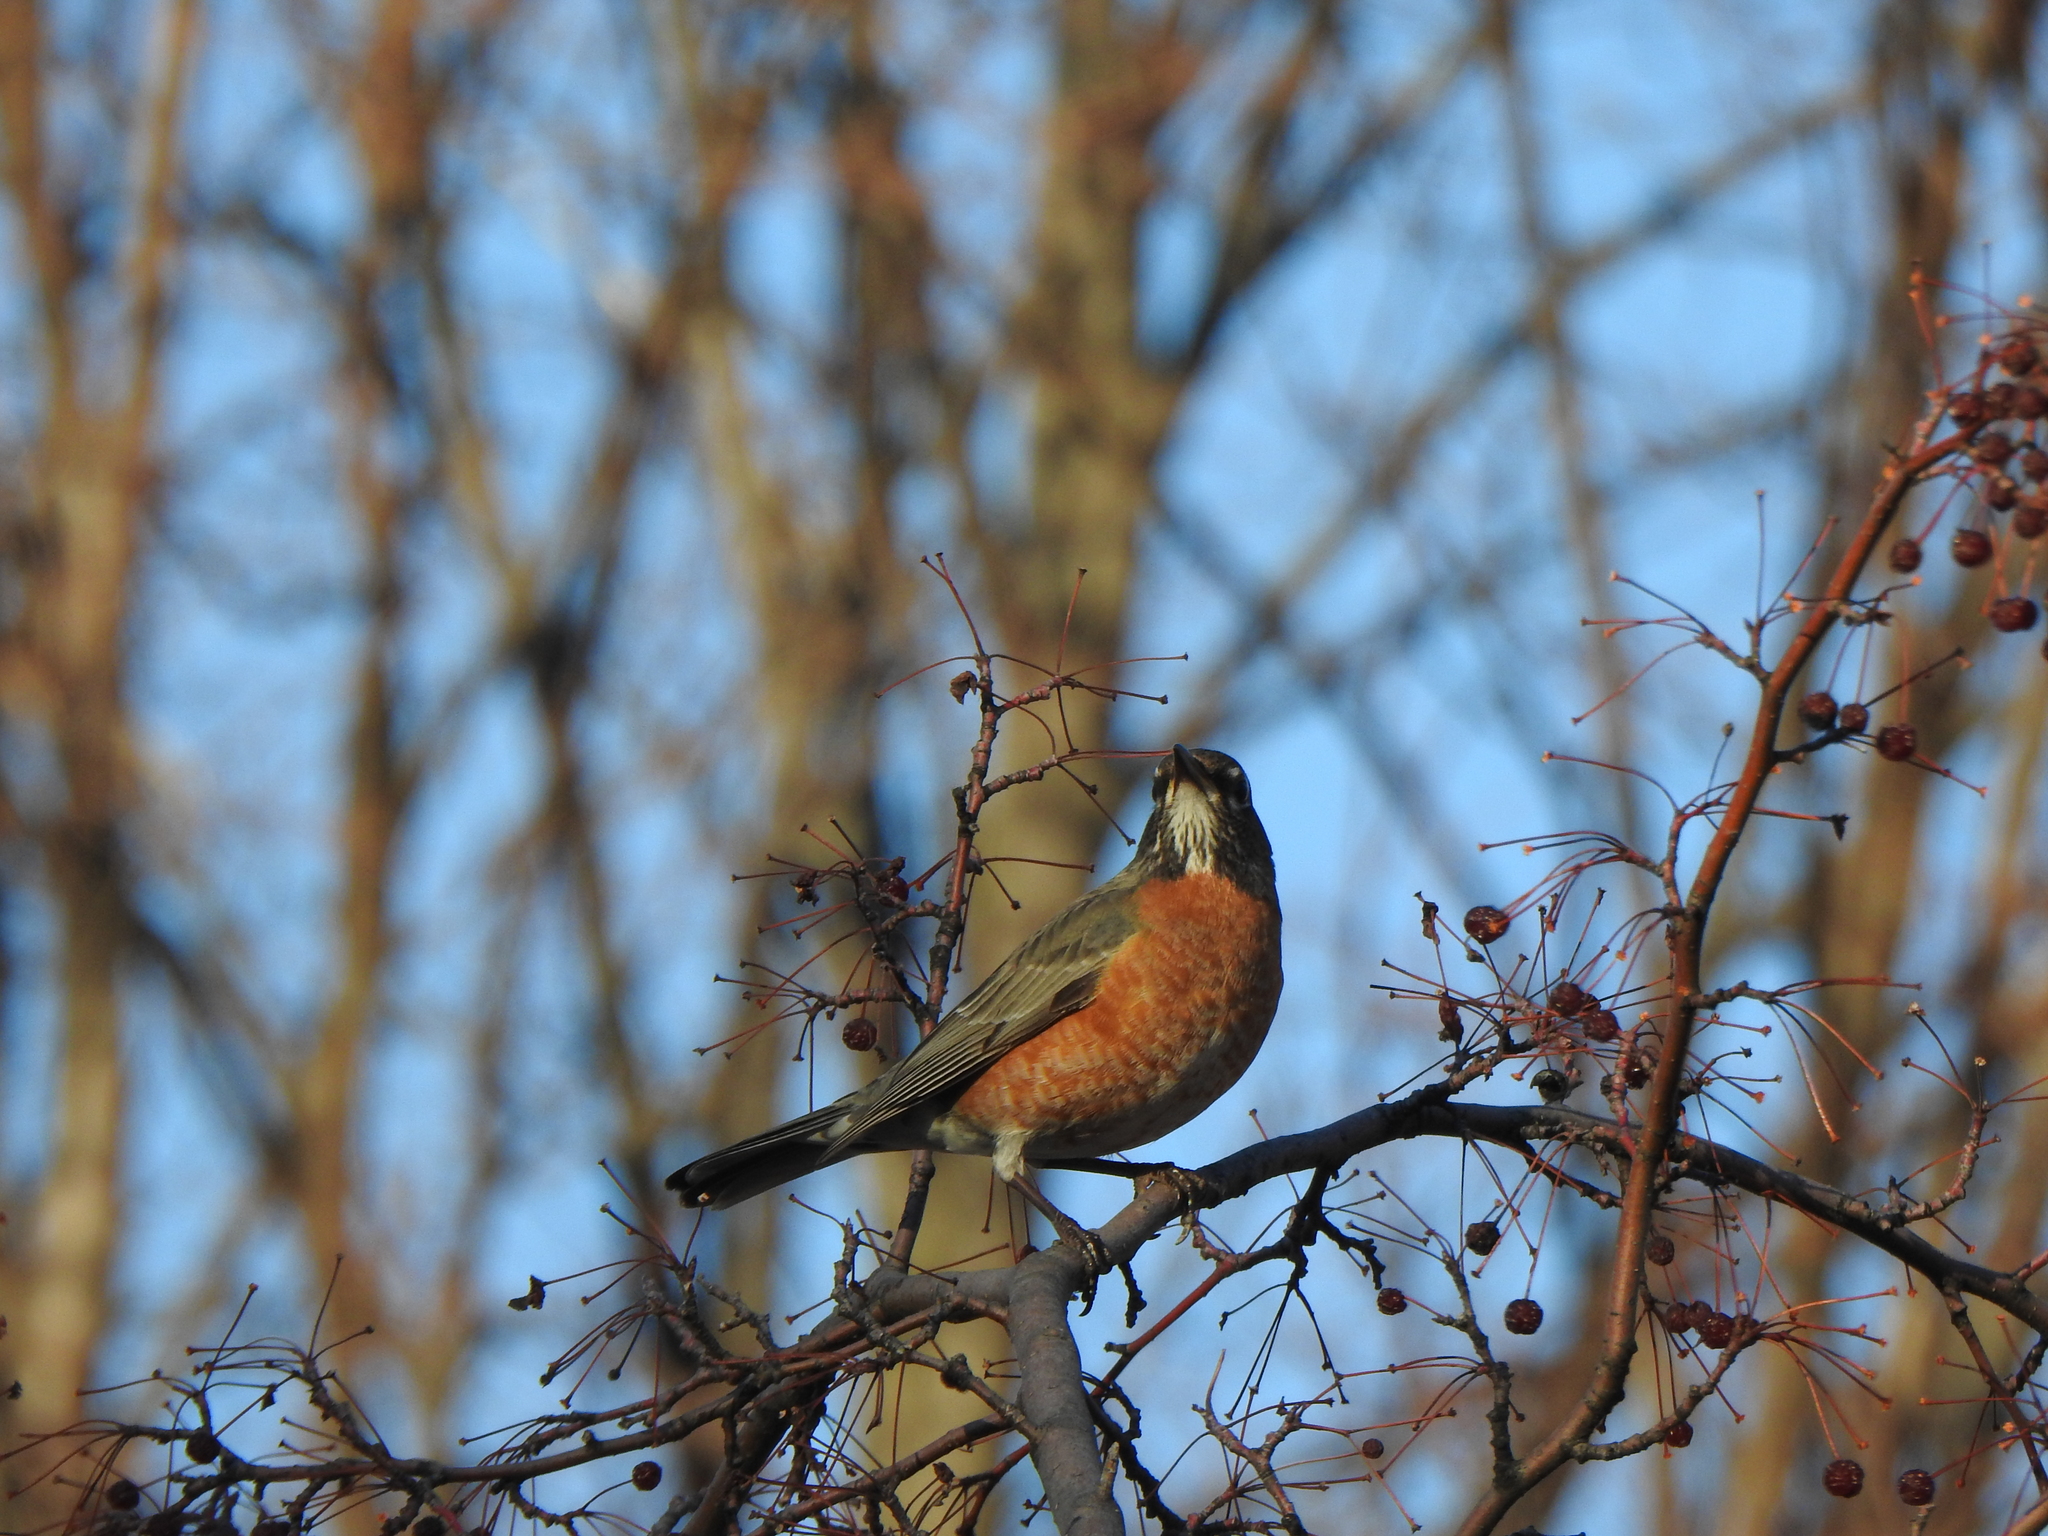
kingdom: Animalia
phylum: Chordata
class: Aves
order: Passeriformes
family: Turdidae
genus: Turdus
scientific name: Turdus migratorius
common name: American robin
